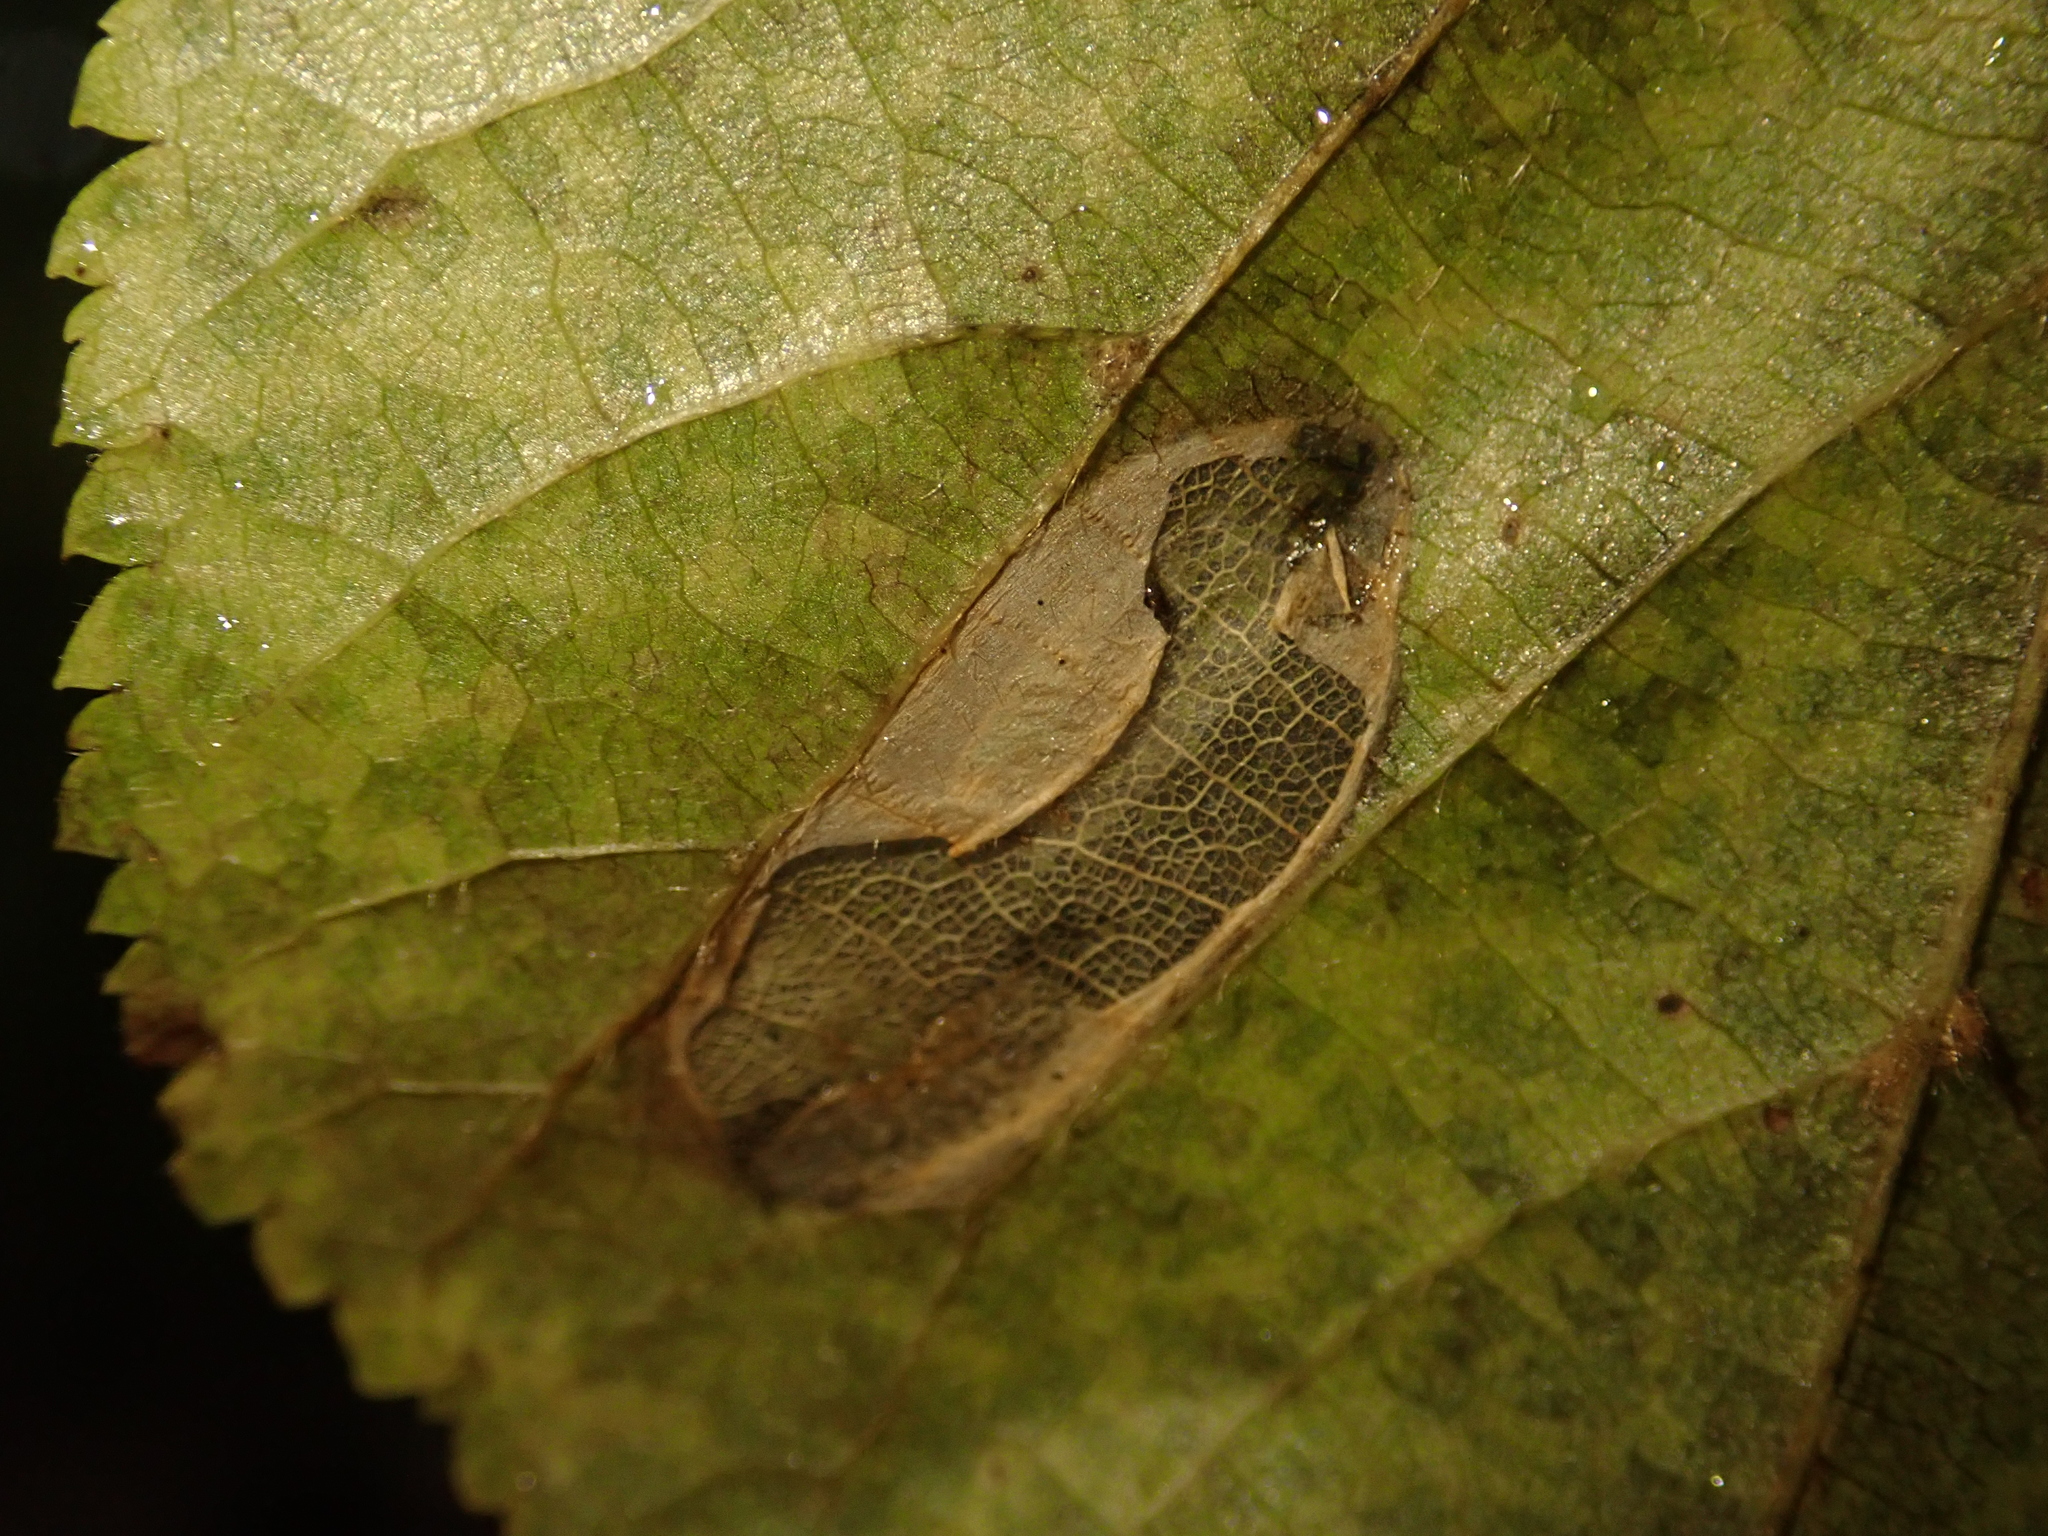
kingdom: Animalia
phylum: Arthropoda
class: Insecta
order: Lepidoptera
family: Gracillariidae
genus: Phyllonorycter
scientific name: Phyllonorycter issikii
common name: Linden midget
